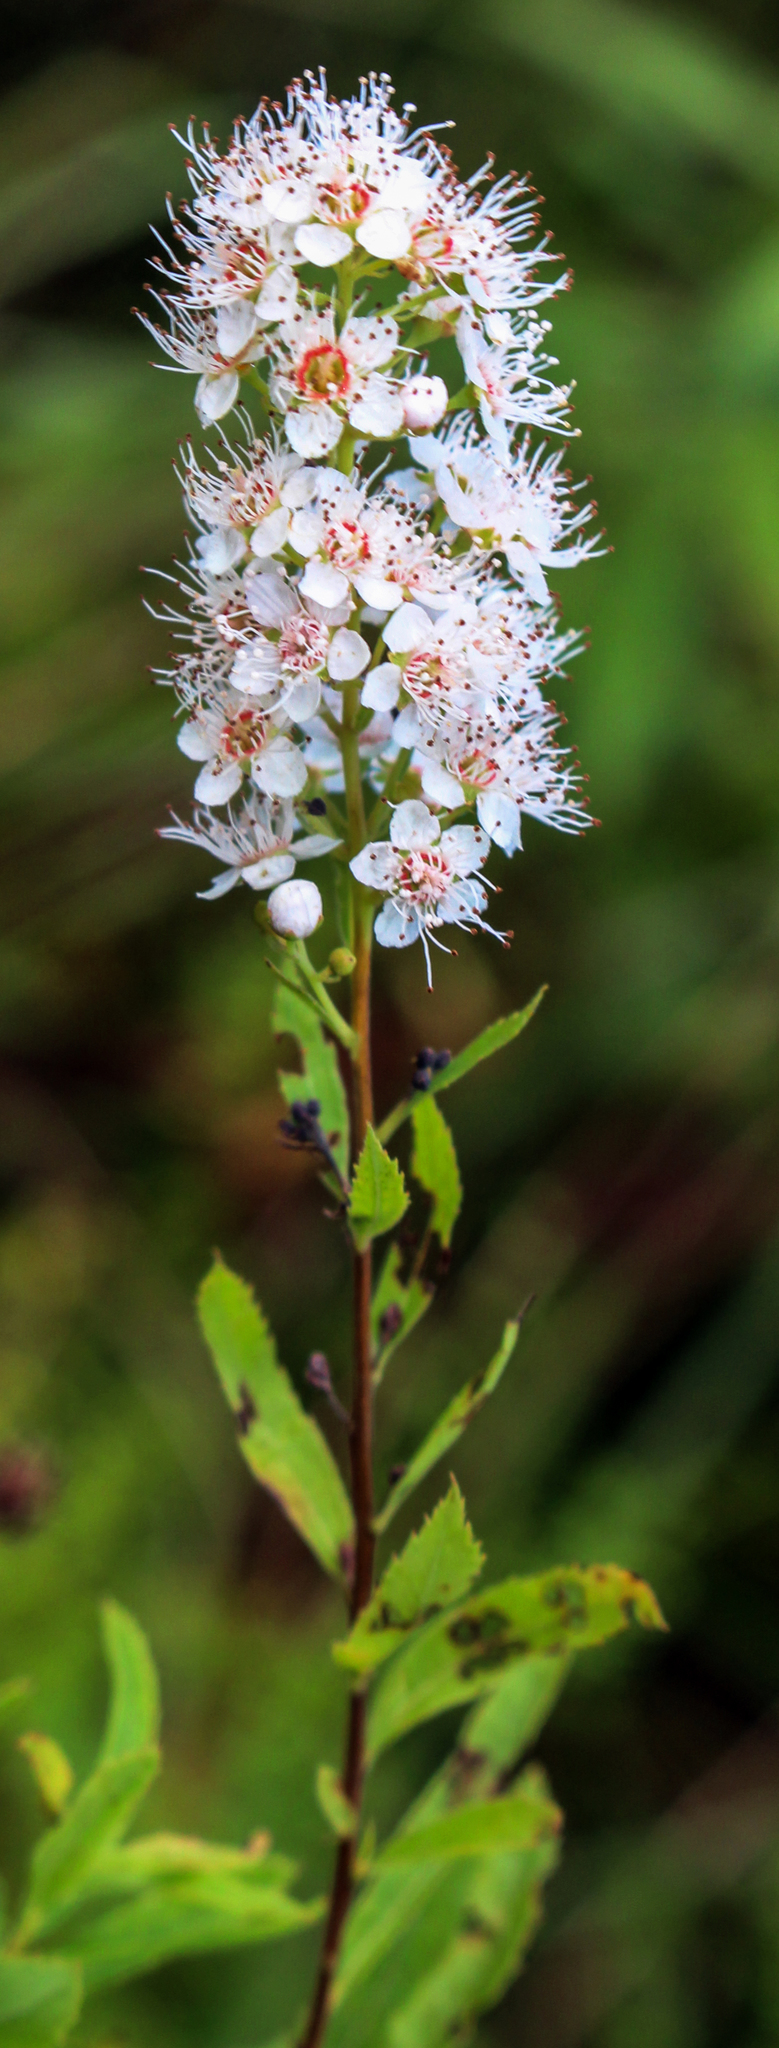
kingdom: Plantae
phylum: Tracheophyta
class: Magnoliopsida
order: Rosales
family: Rosaceae
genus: Spiraea
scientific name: Spiraea alba
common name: Pale bridewort
